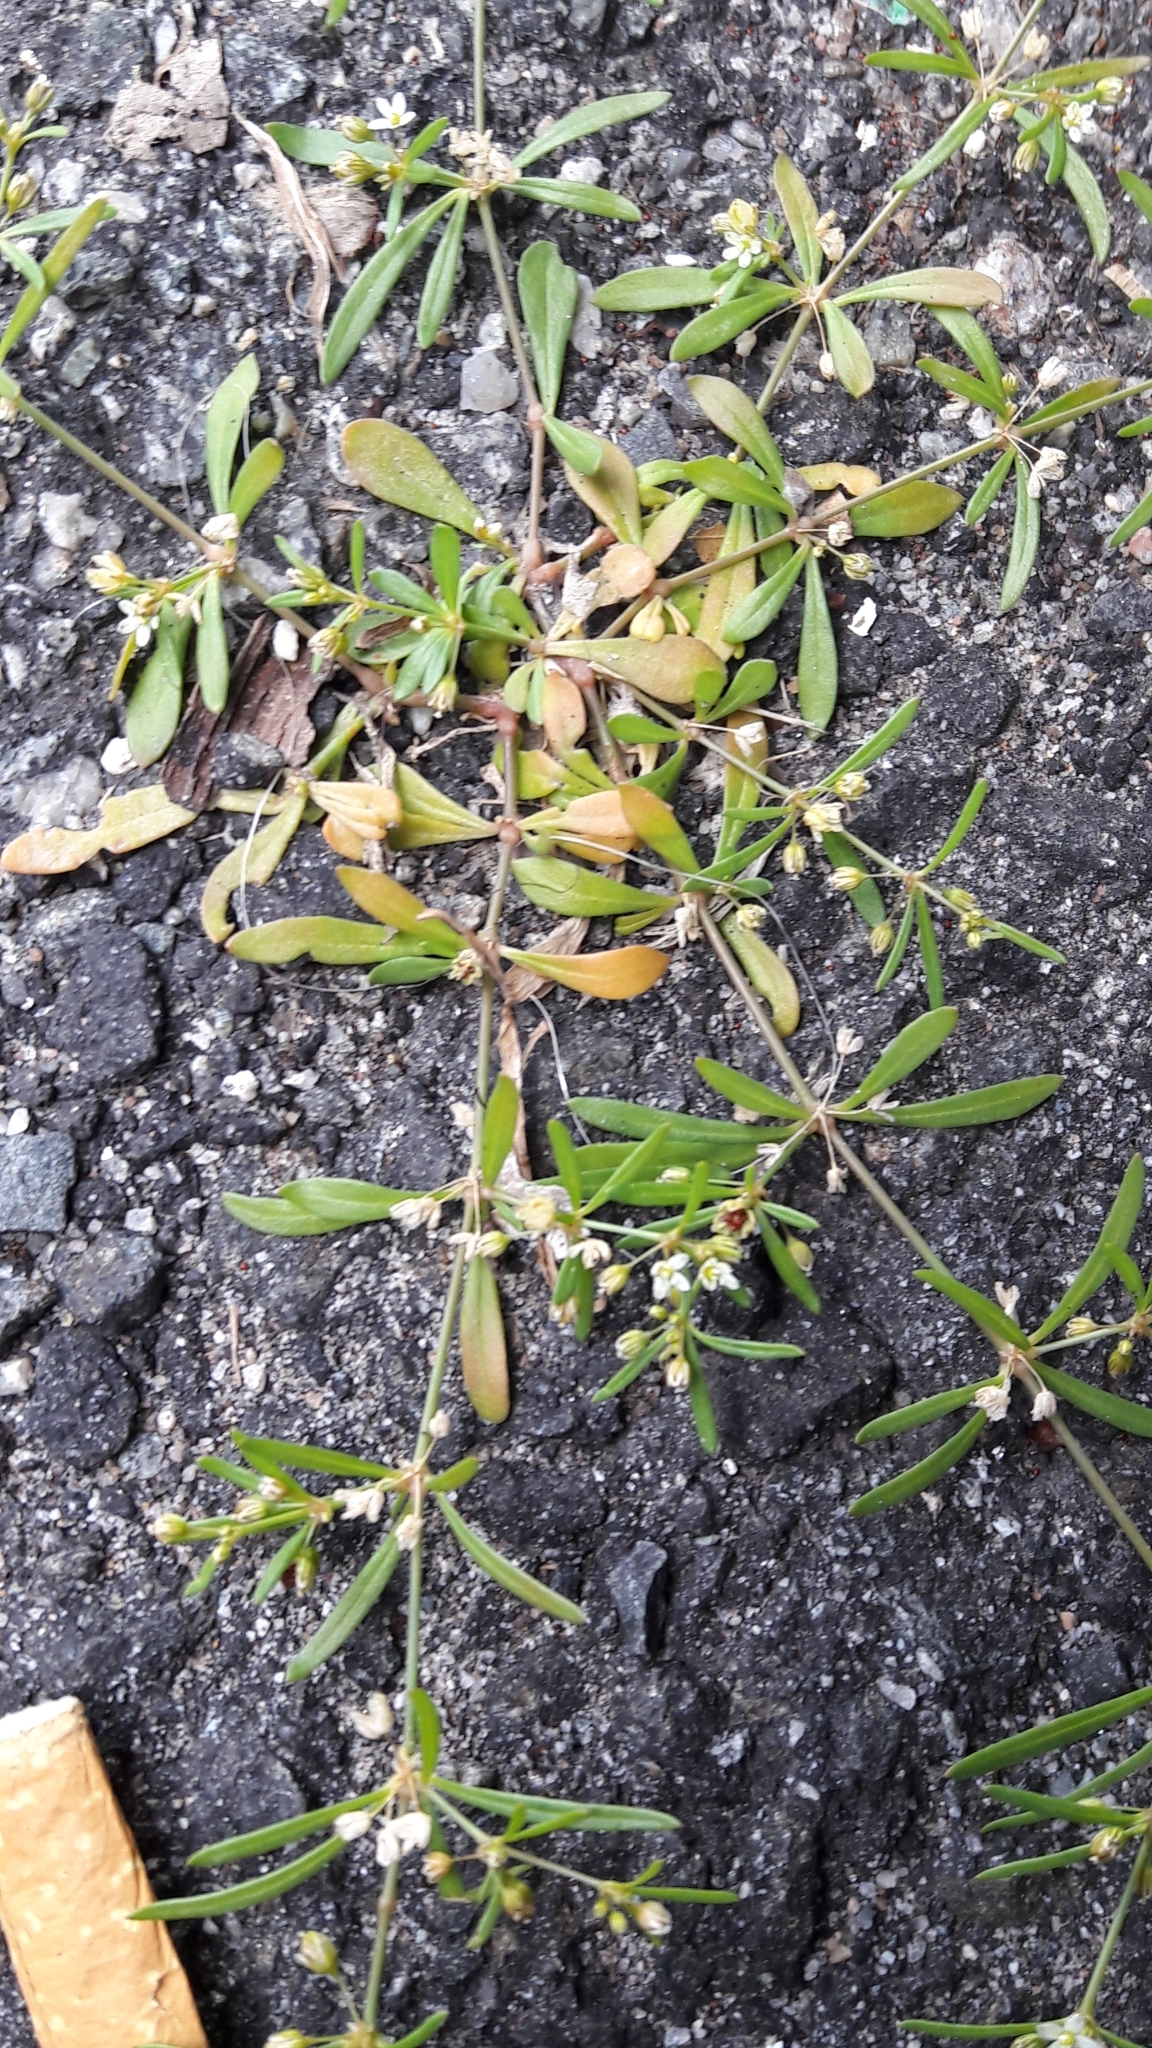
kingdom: Plantae
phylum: Tracheophyta
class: Magnoliopsida
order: Caryophyllales
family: Molluginaceae
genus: Mollugo
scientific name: Mollugo verticillata
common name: Green carpetweed
